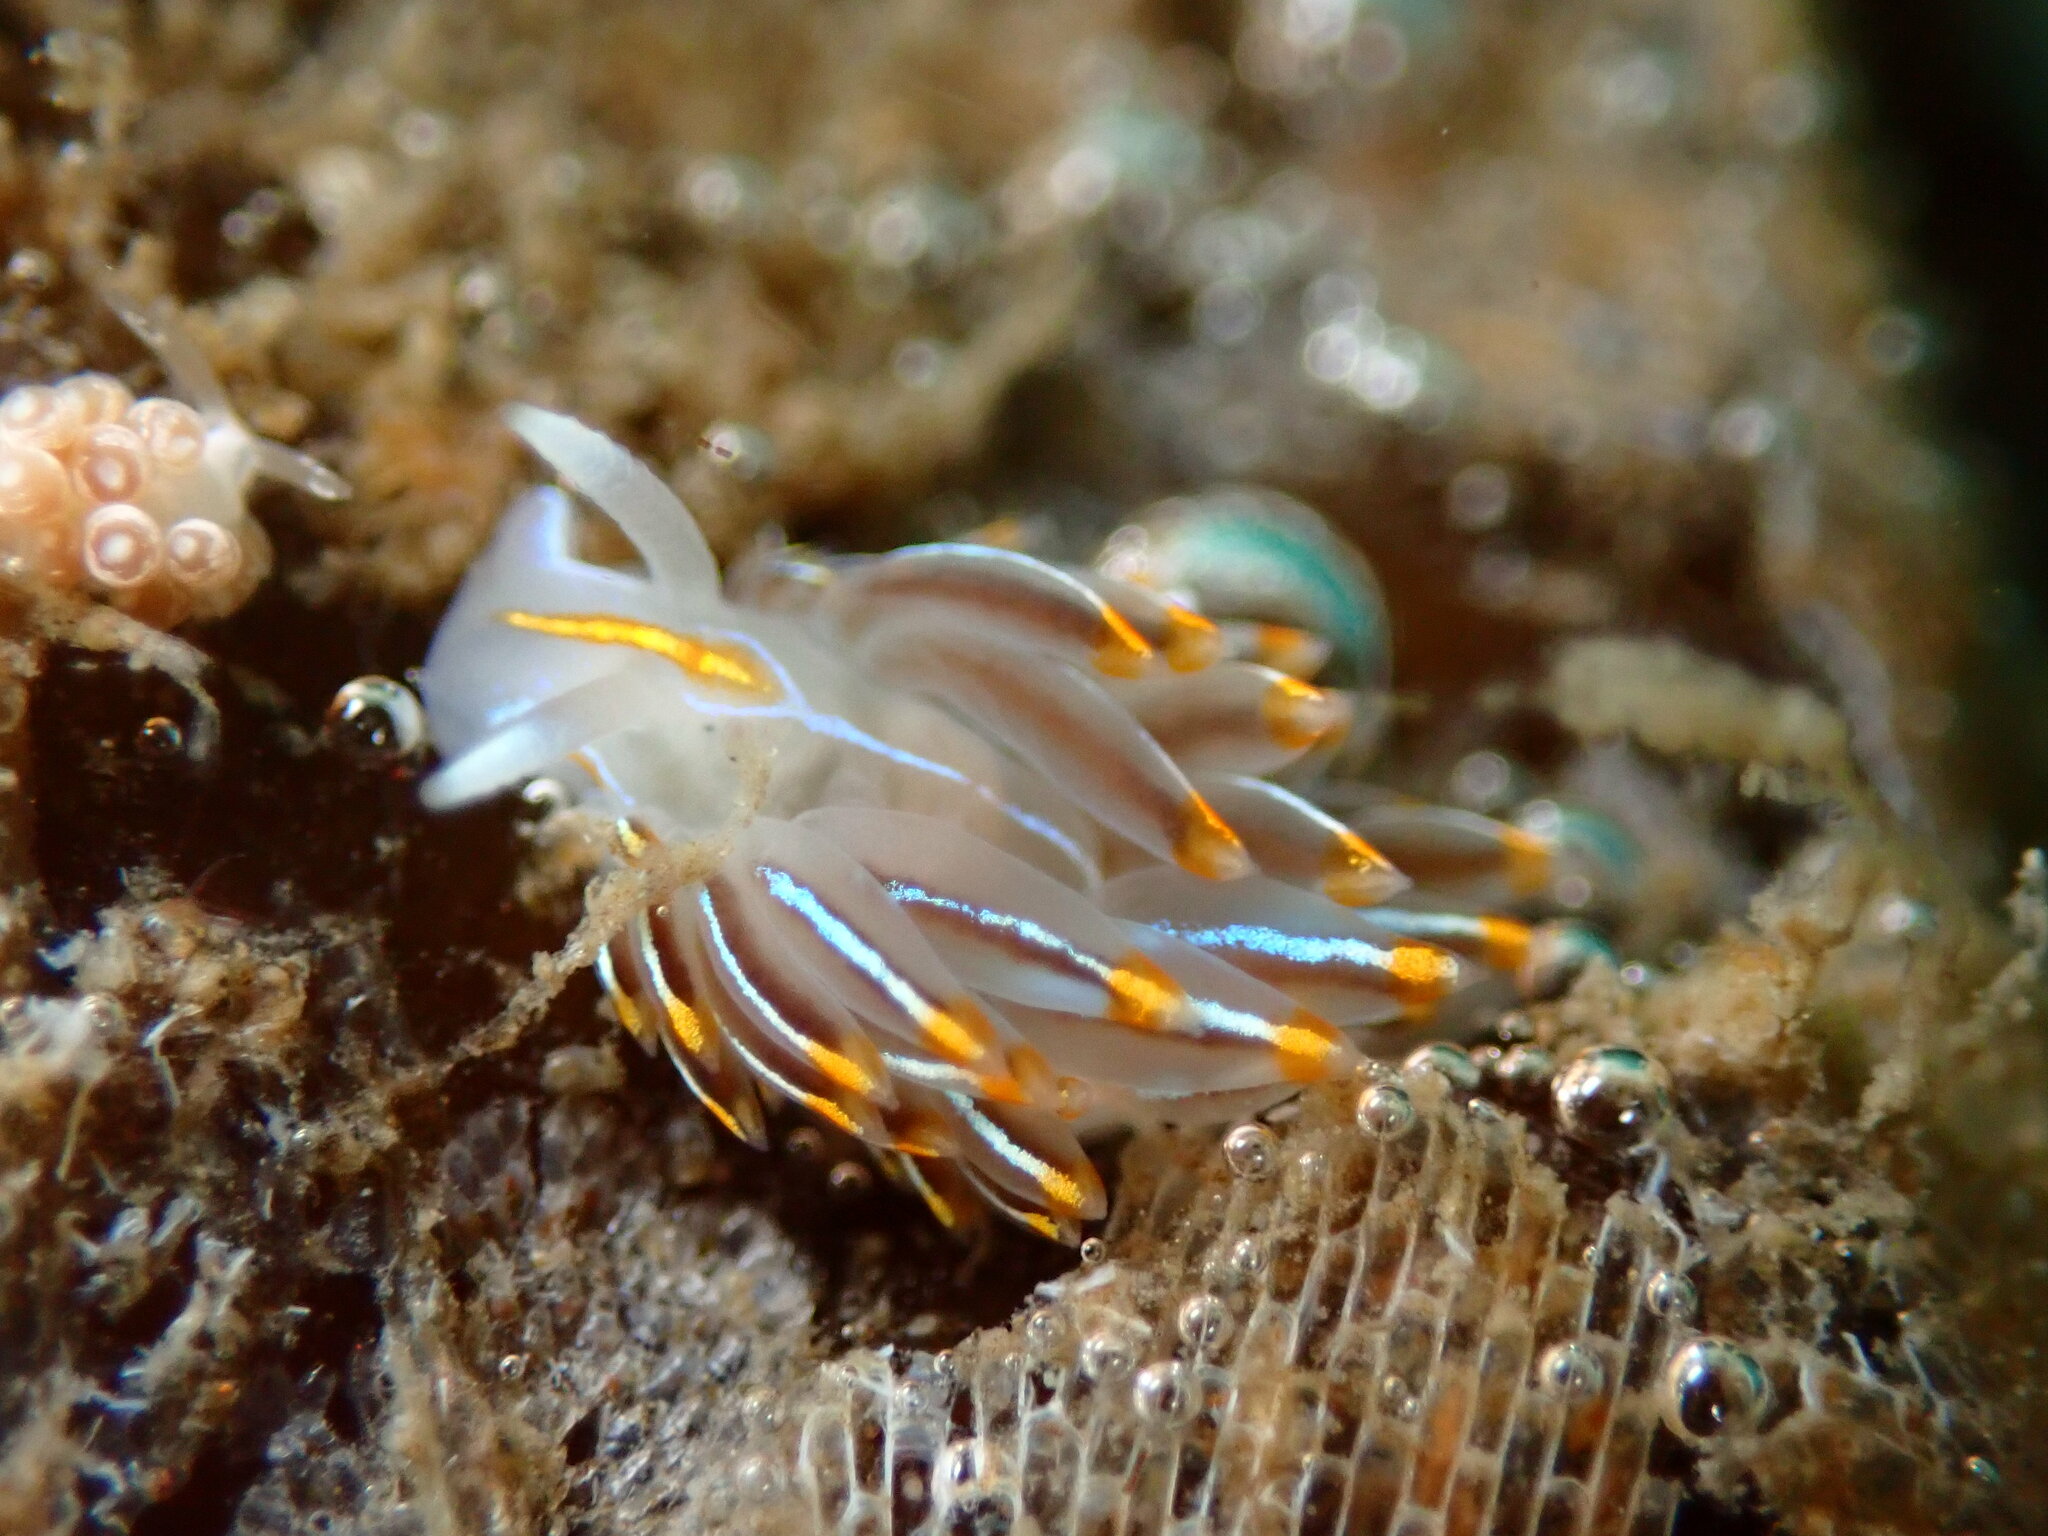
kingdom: Animalia
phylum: Mollusca
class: Gastropoda
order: Nudibranchia
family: Myrrhinidae
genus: Hermissenda
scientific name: Hermissenda crassicornis
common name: Hermissenda
